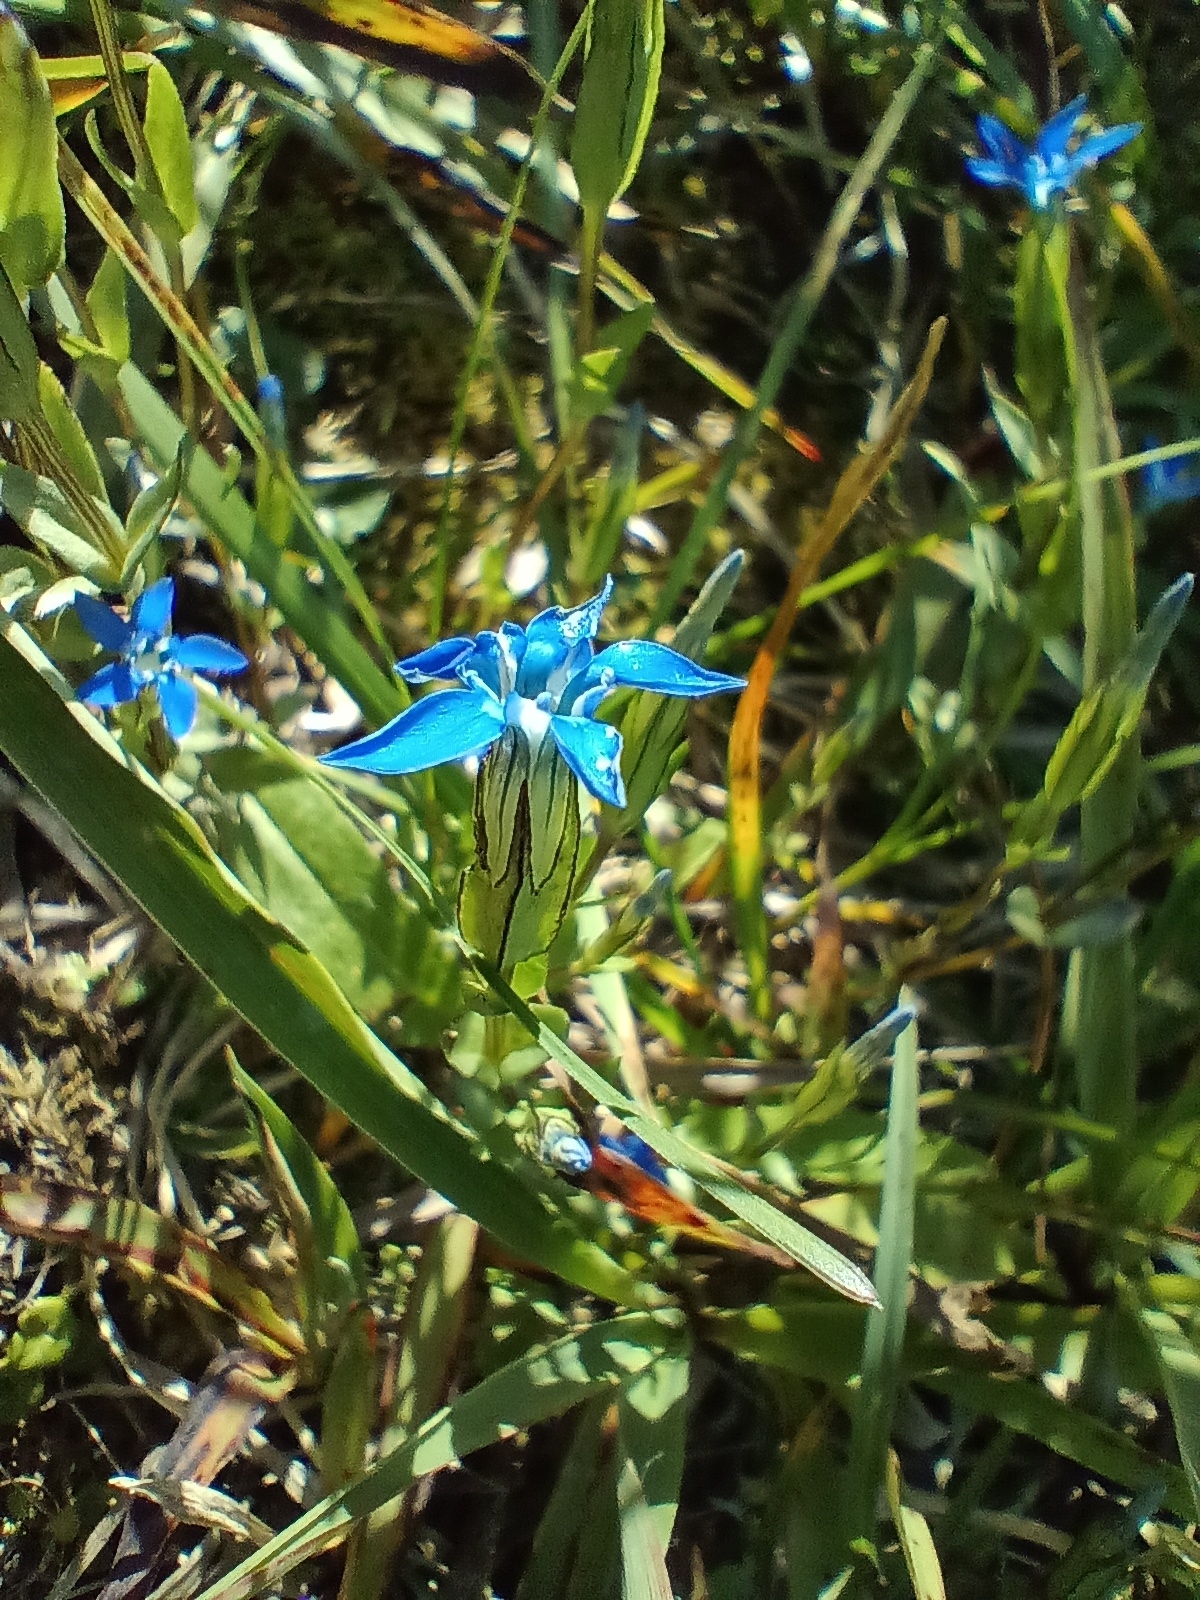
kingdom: Plantae
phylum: Tracheophyta
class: Magnoliopsida
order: Gentianales
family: Gentianaceae
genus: Gentiana
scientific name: Gentiana nivalis
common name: Alpine gentian
